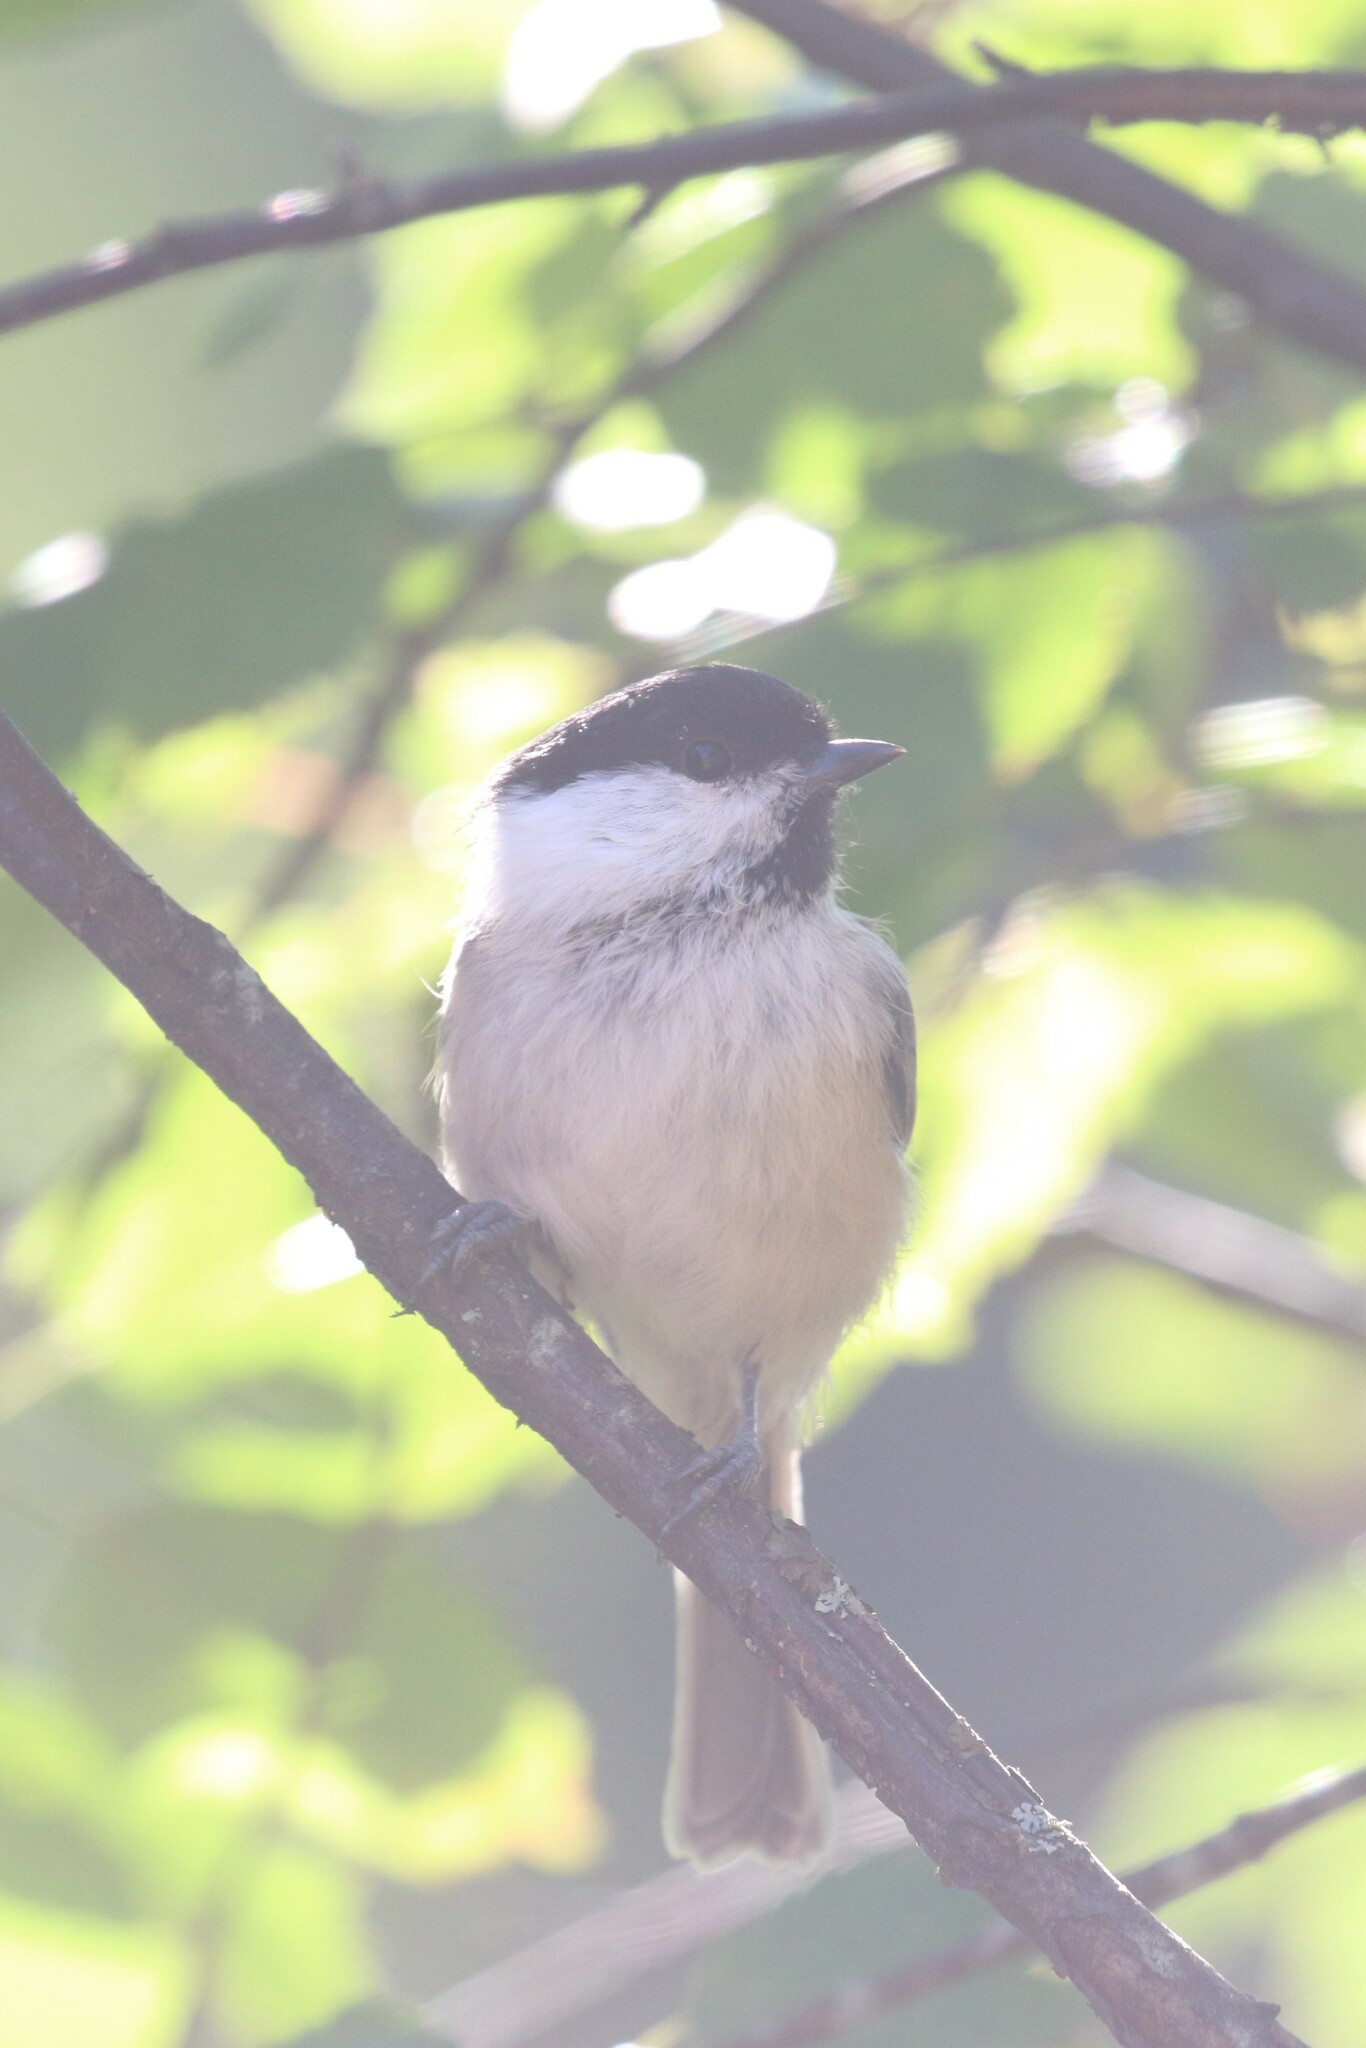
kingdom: Animalia
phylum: Chordata
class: Aves
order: Passeriformes
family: Paridae
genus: Poecile
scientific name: Poecile montanus
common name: Willow tit
